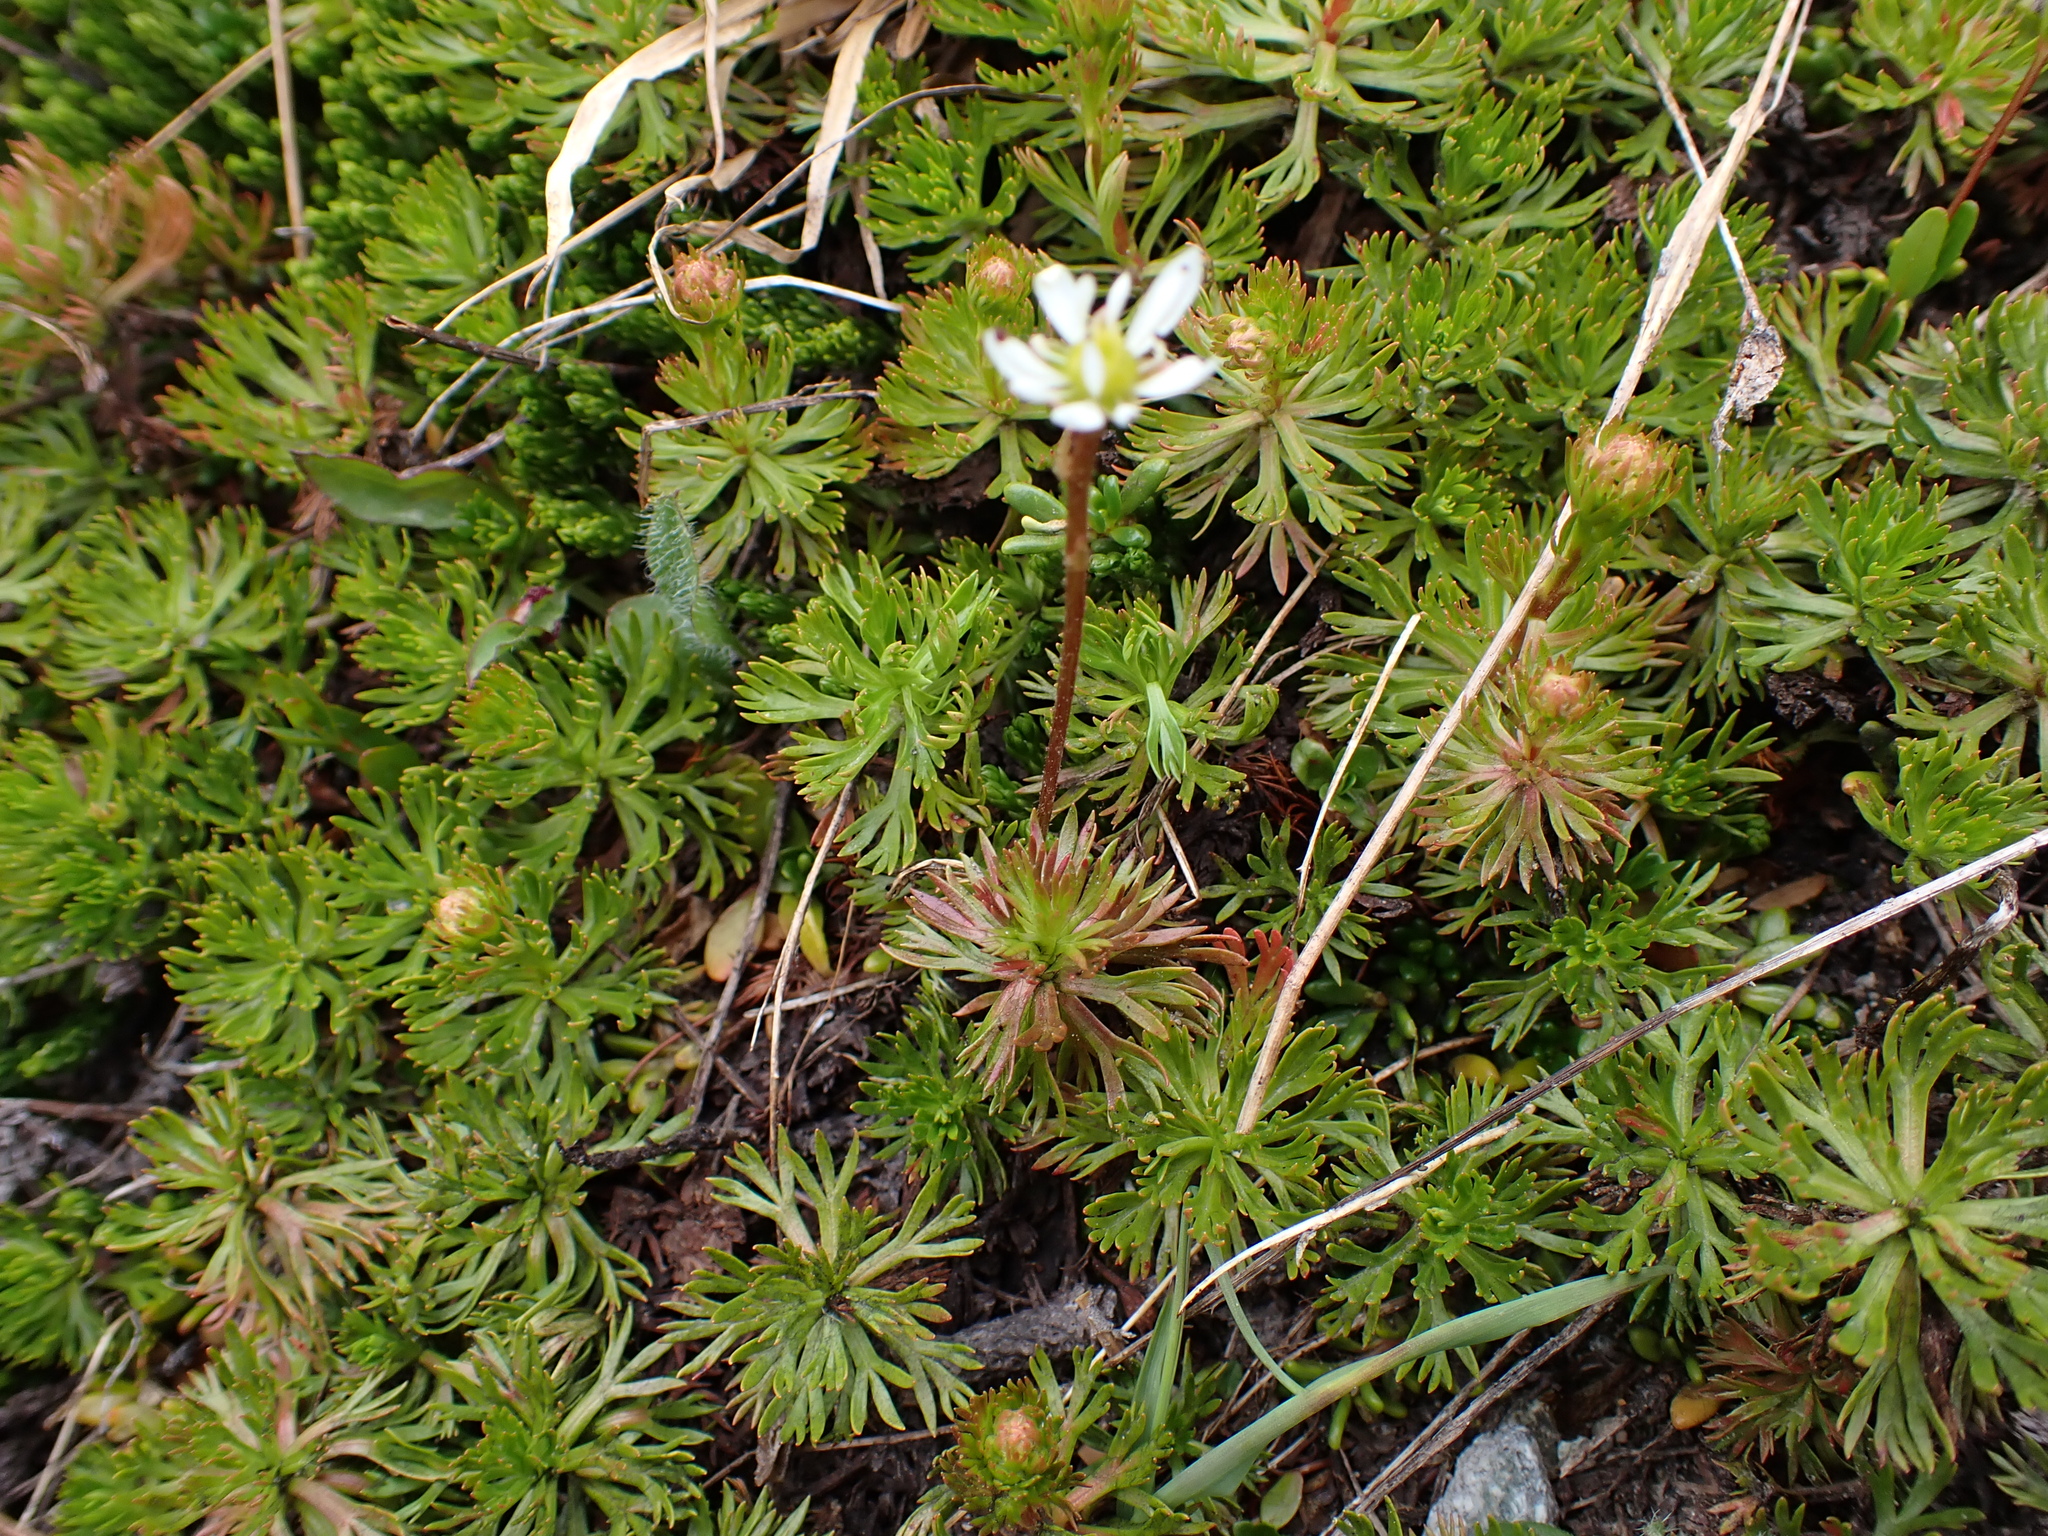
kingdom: Plantae
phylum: Tracheophyta
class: Magnoliopsida
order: Saxifragales
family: Saxifragaceae
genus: Micranthes
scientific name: Micranthes tolmiei
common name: Tolmie's saxifrage
